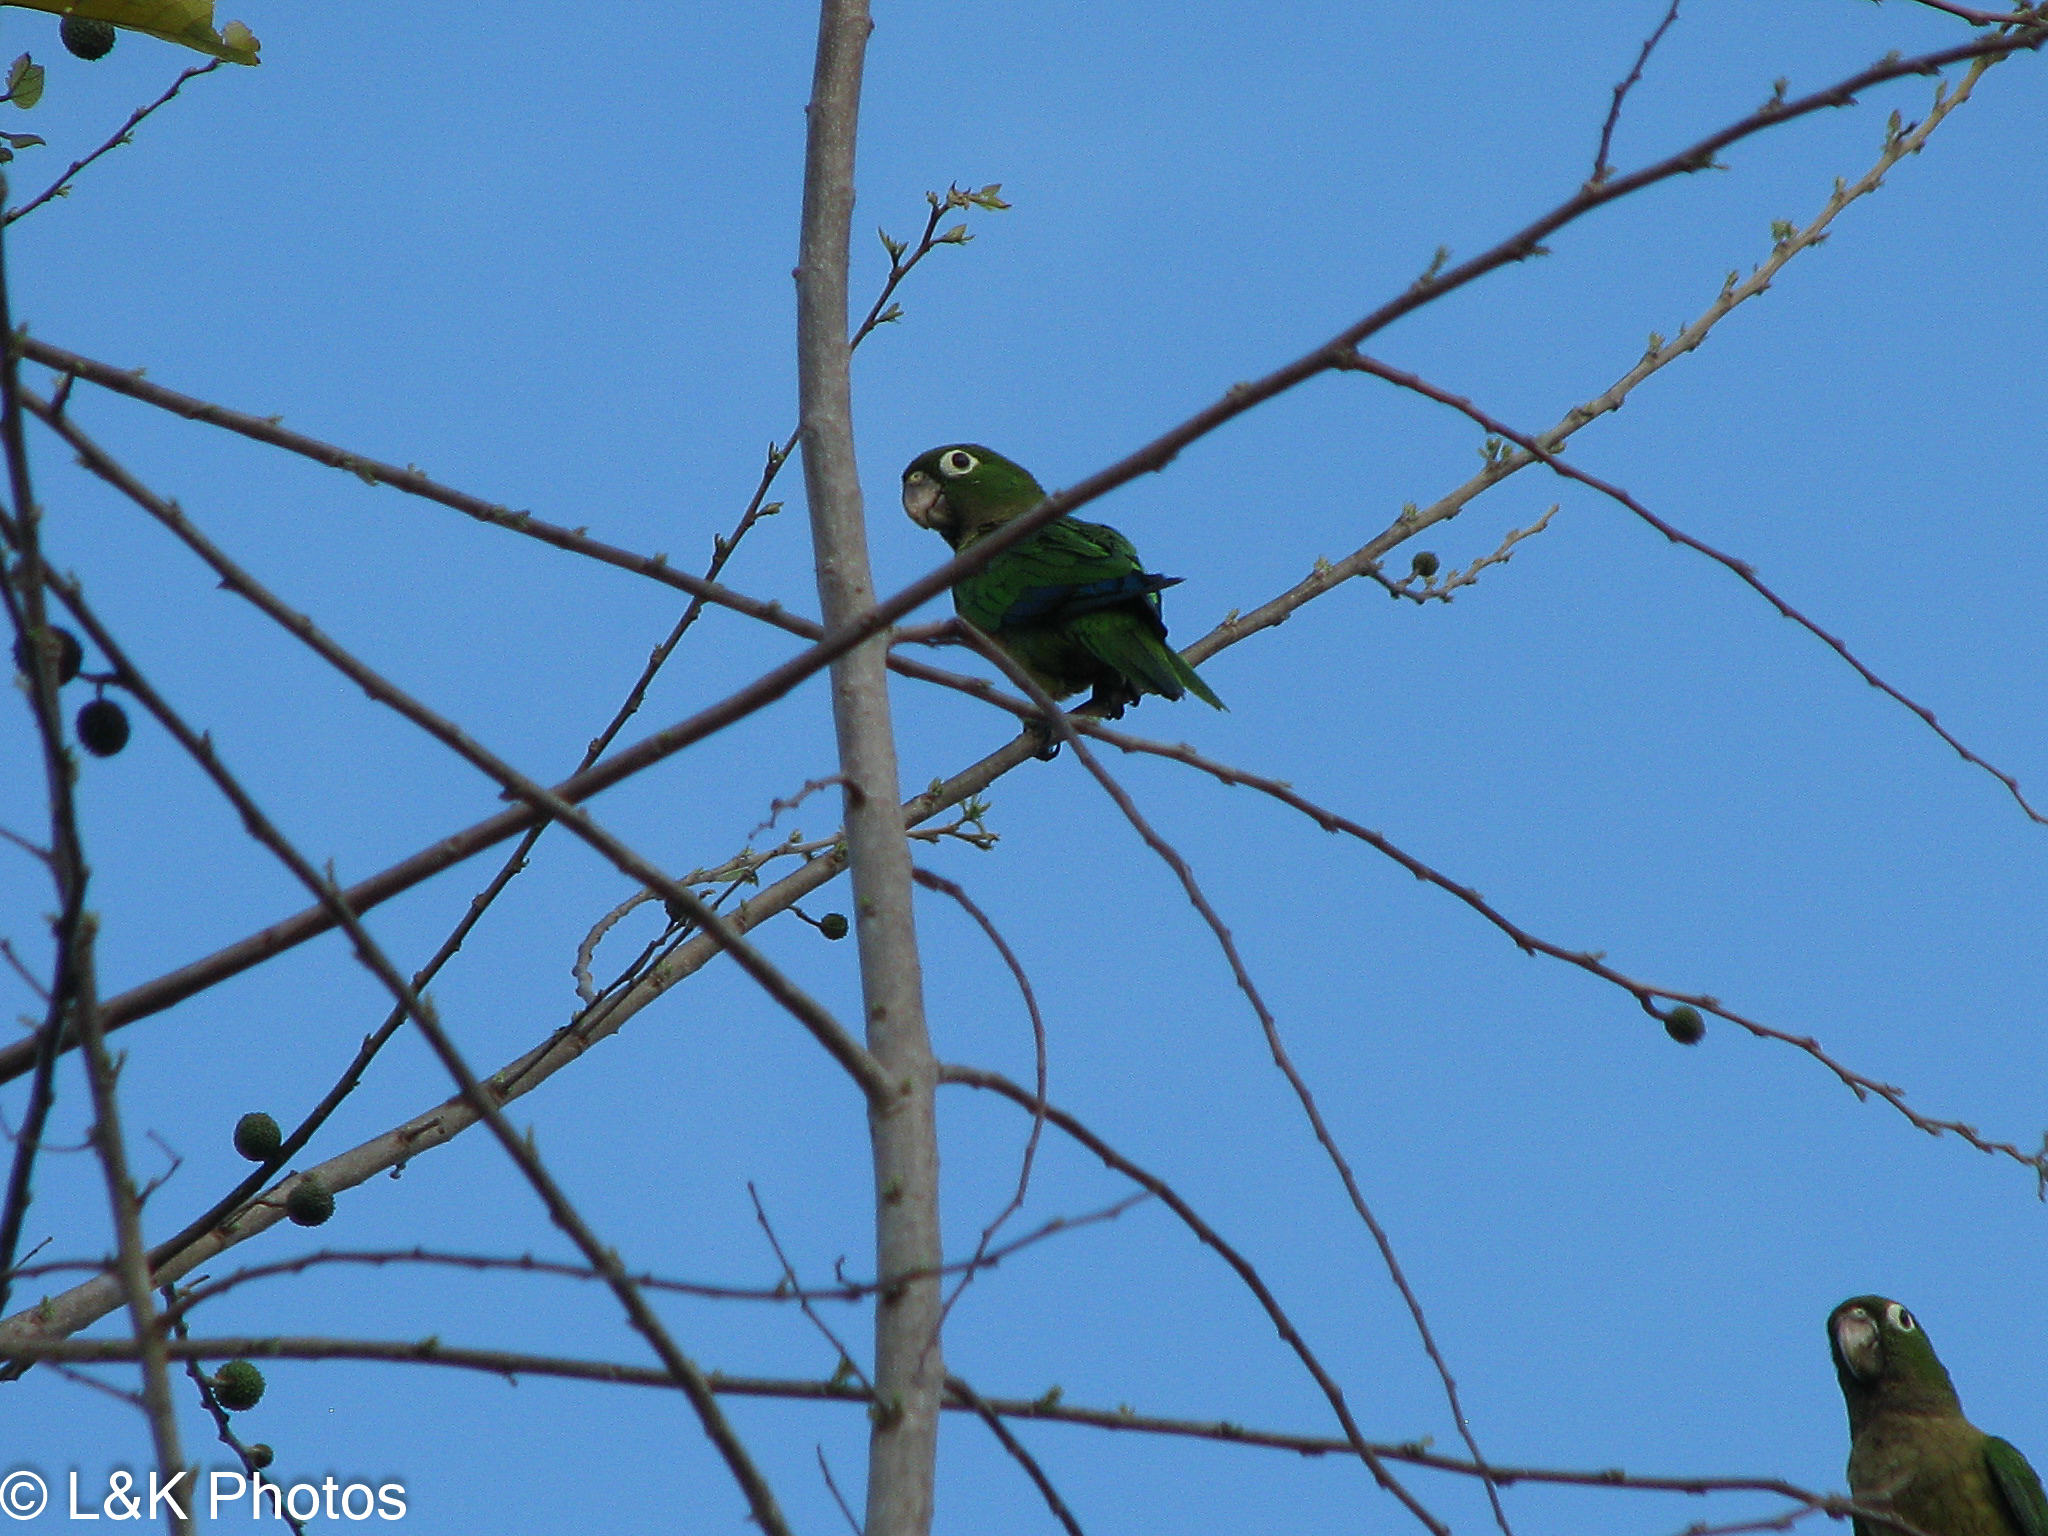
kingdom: Animalia
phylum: Chordata
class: Aves
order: Psittaciformes
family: Psittacidae
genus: Aratinga
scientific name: Aratinga nana
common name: Olive-throated parakeet
